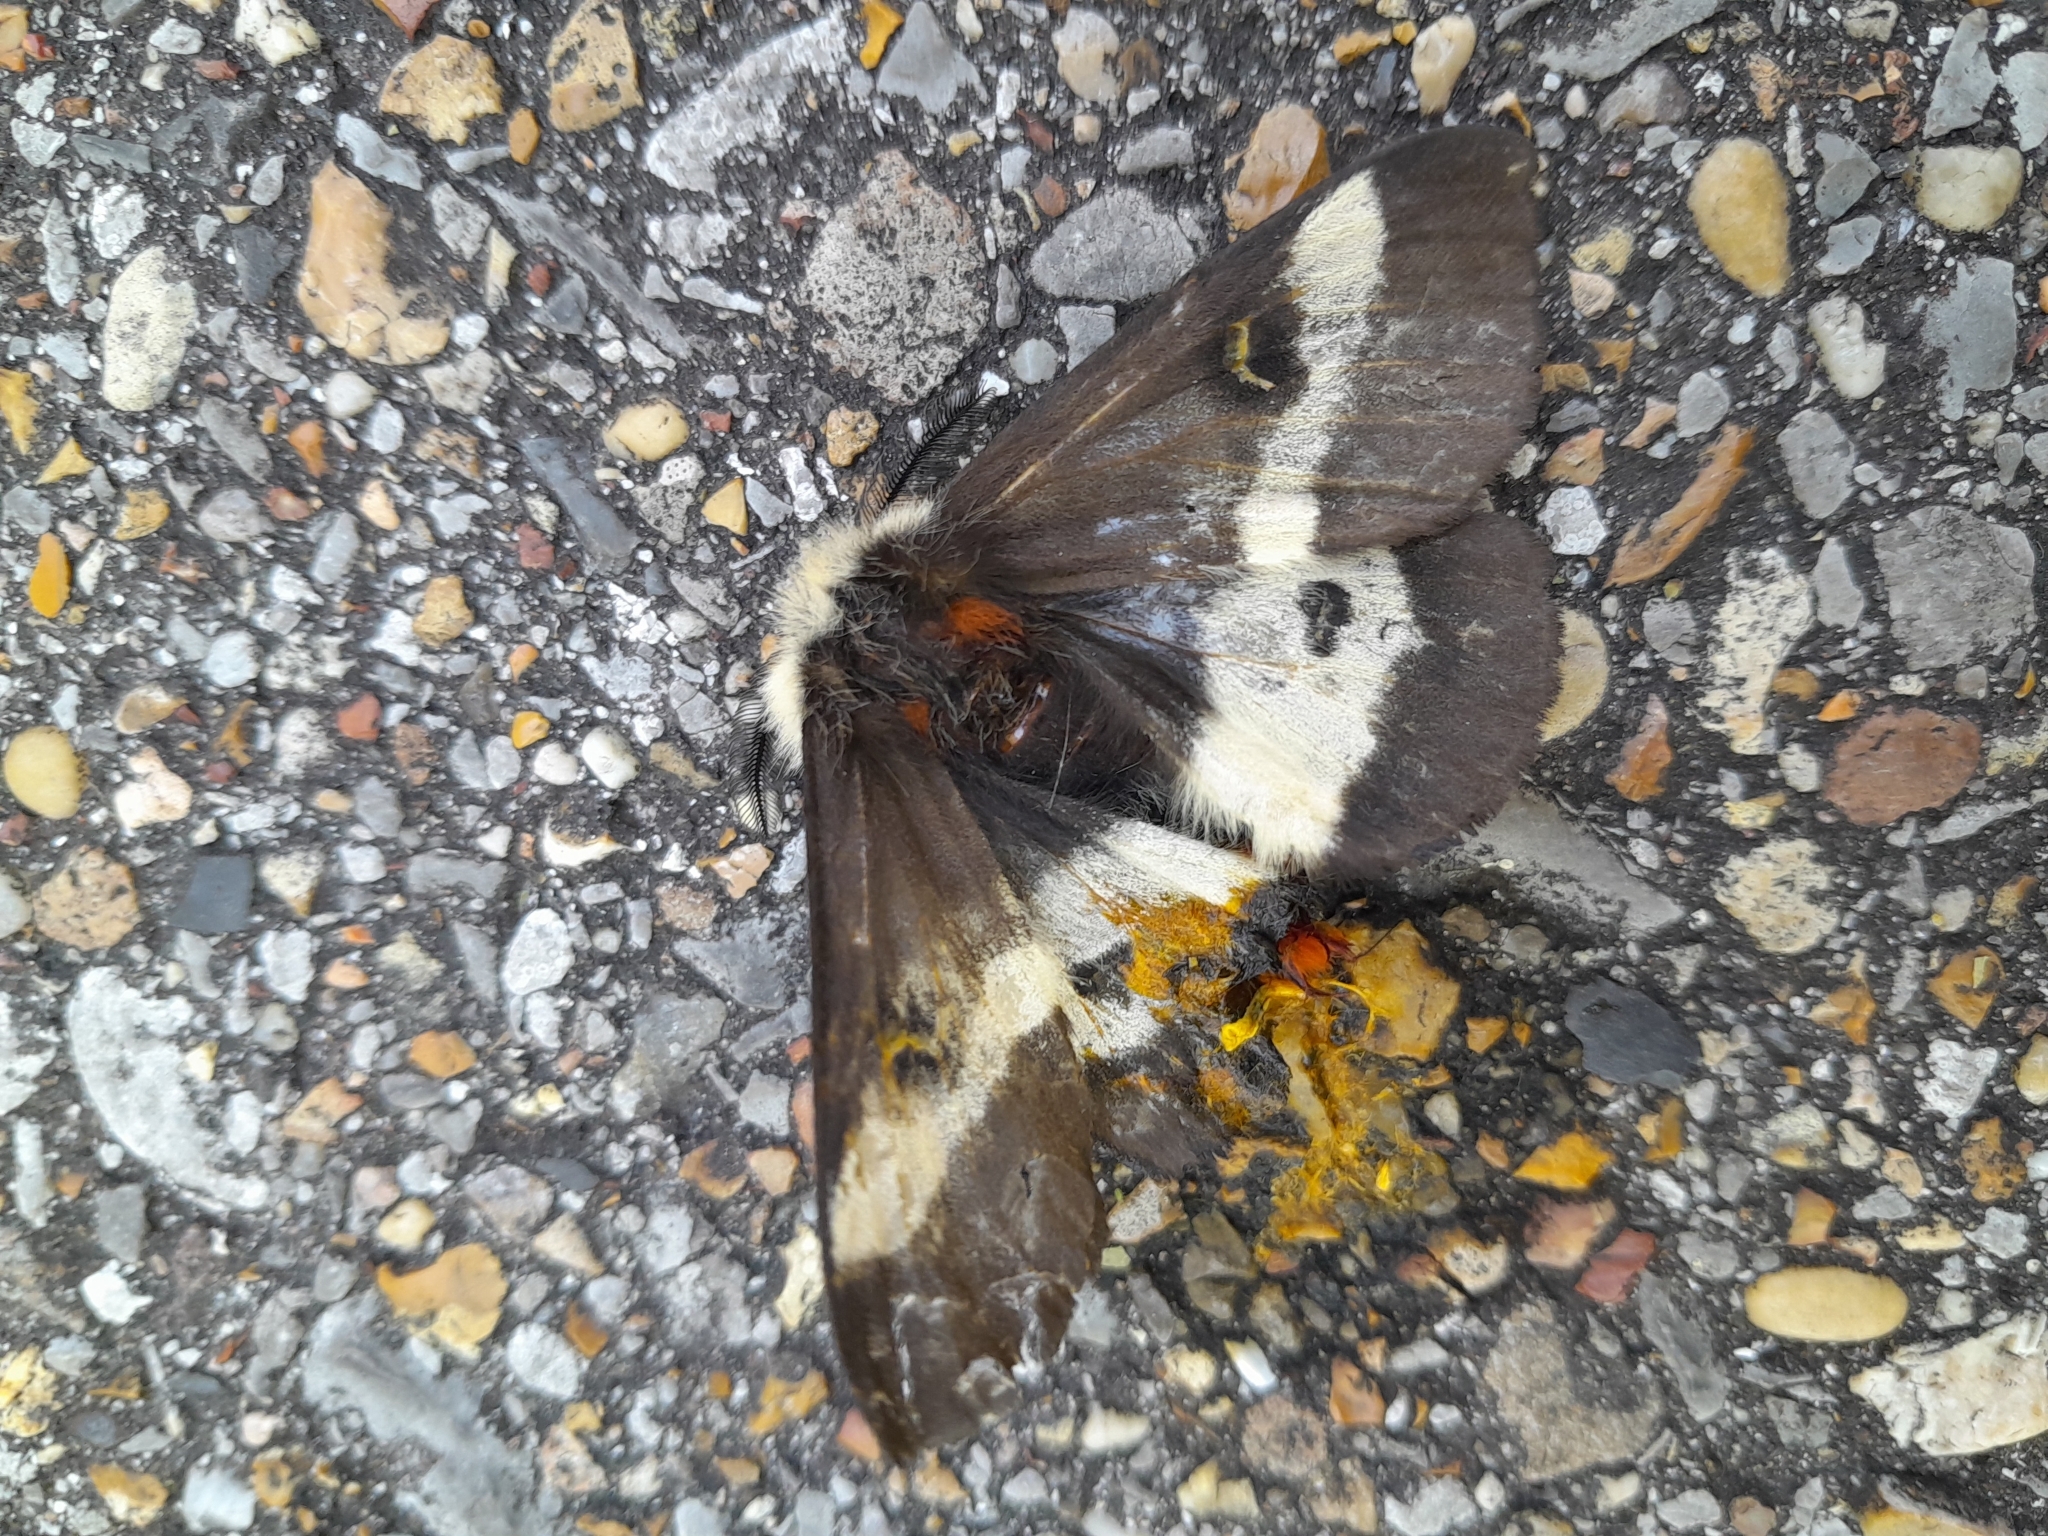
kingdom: Animalia
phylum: Arthropoda
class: Insecta
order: Lepidoptera
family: Saturniidae
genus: Hemileuca
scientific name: Hemileuca maia
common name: Eastern buckmoth
